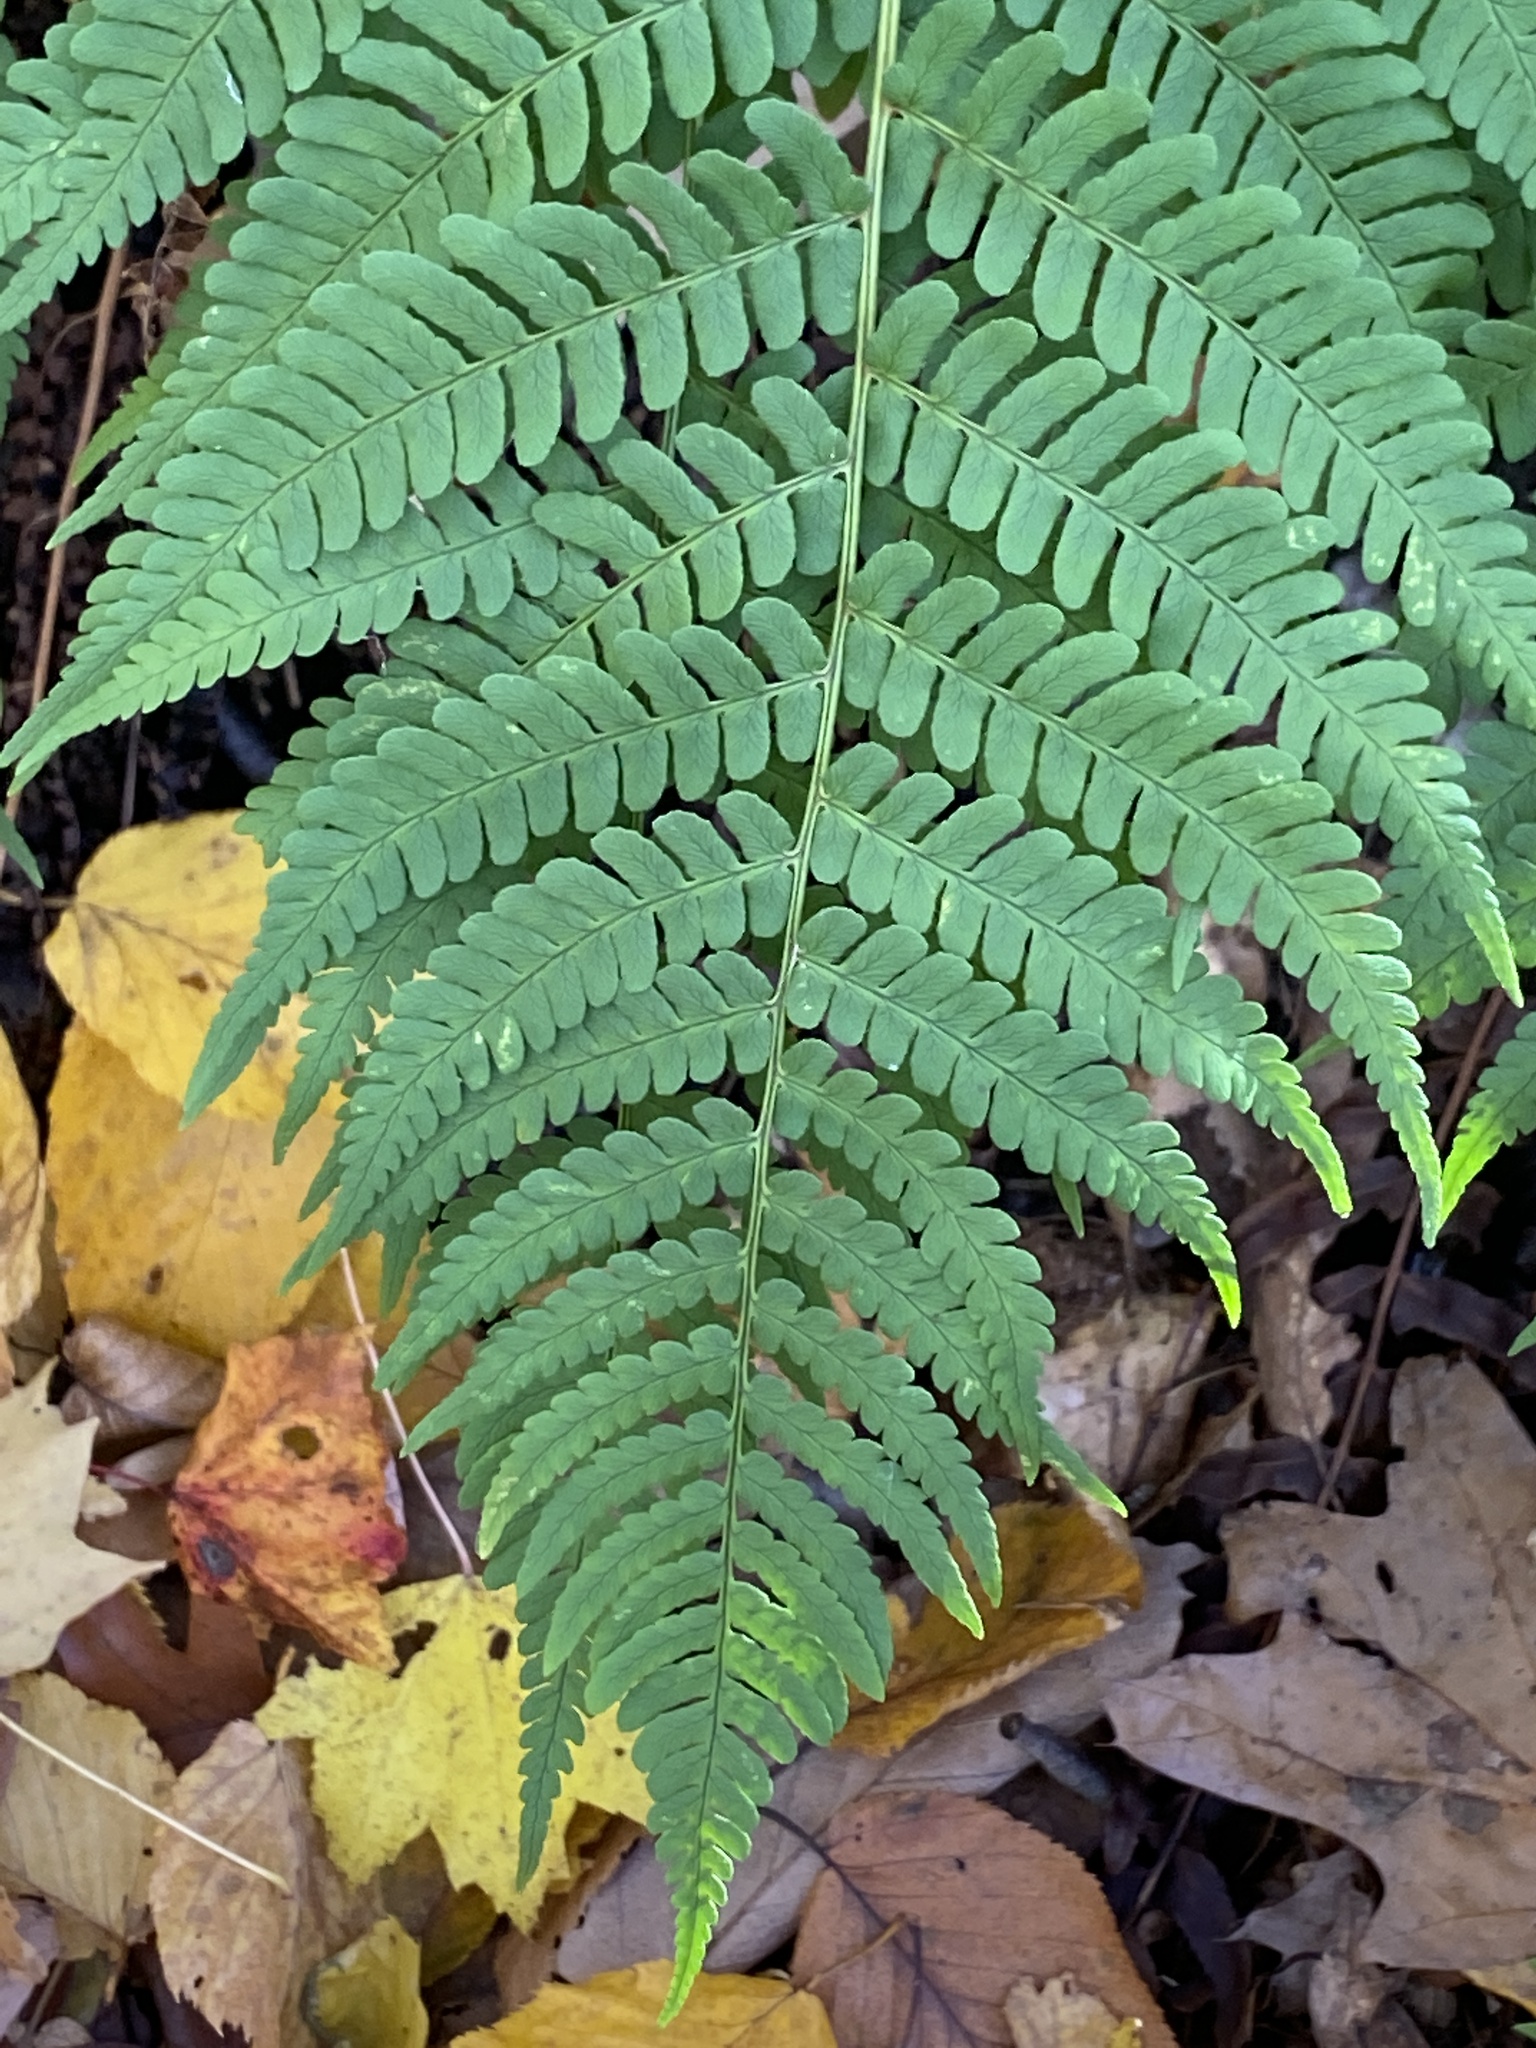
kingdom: Plantae
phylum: Tracheophyta
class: Polypodiopsida
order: Polypodiales
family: Dryopteridaceae
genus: Dryopteris
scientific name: Dryopteris marginalis
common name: Marginal wood fern
